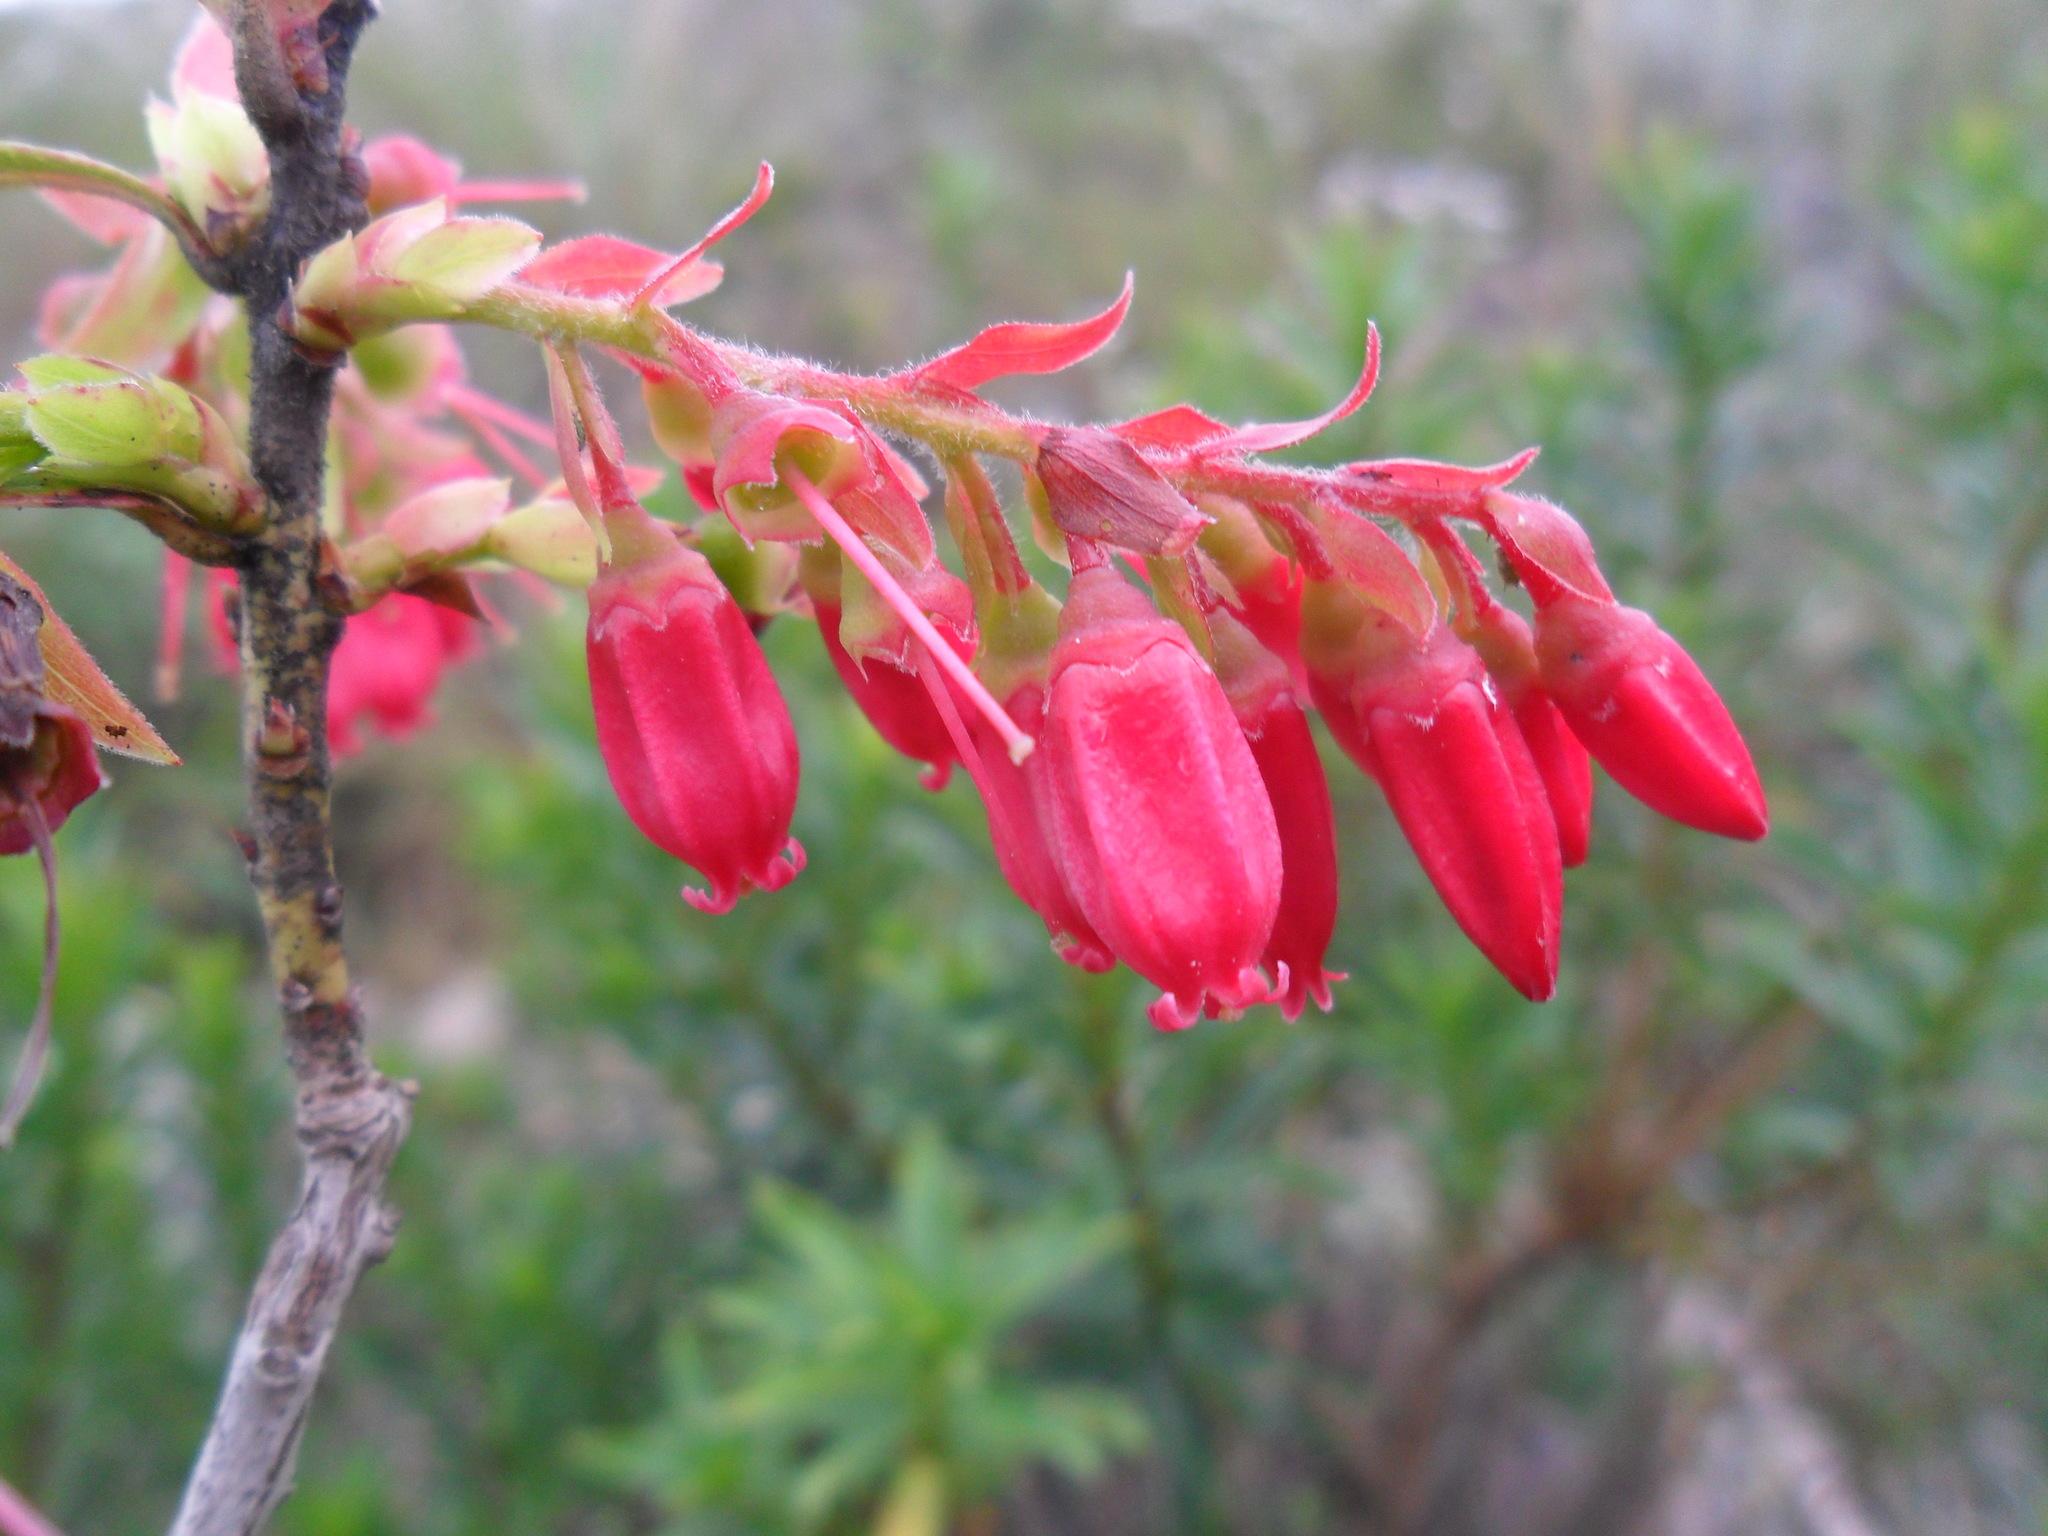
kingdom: Plantae
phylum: Tracheophyta
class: Magnoliopsida
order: Ericales
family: Ericaceae
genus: Gaylussacia
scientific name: Gaylussacia brasiliensis
